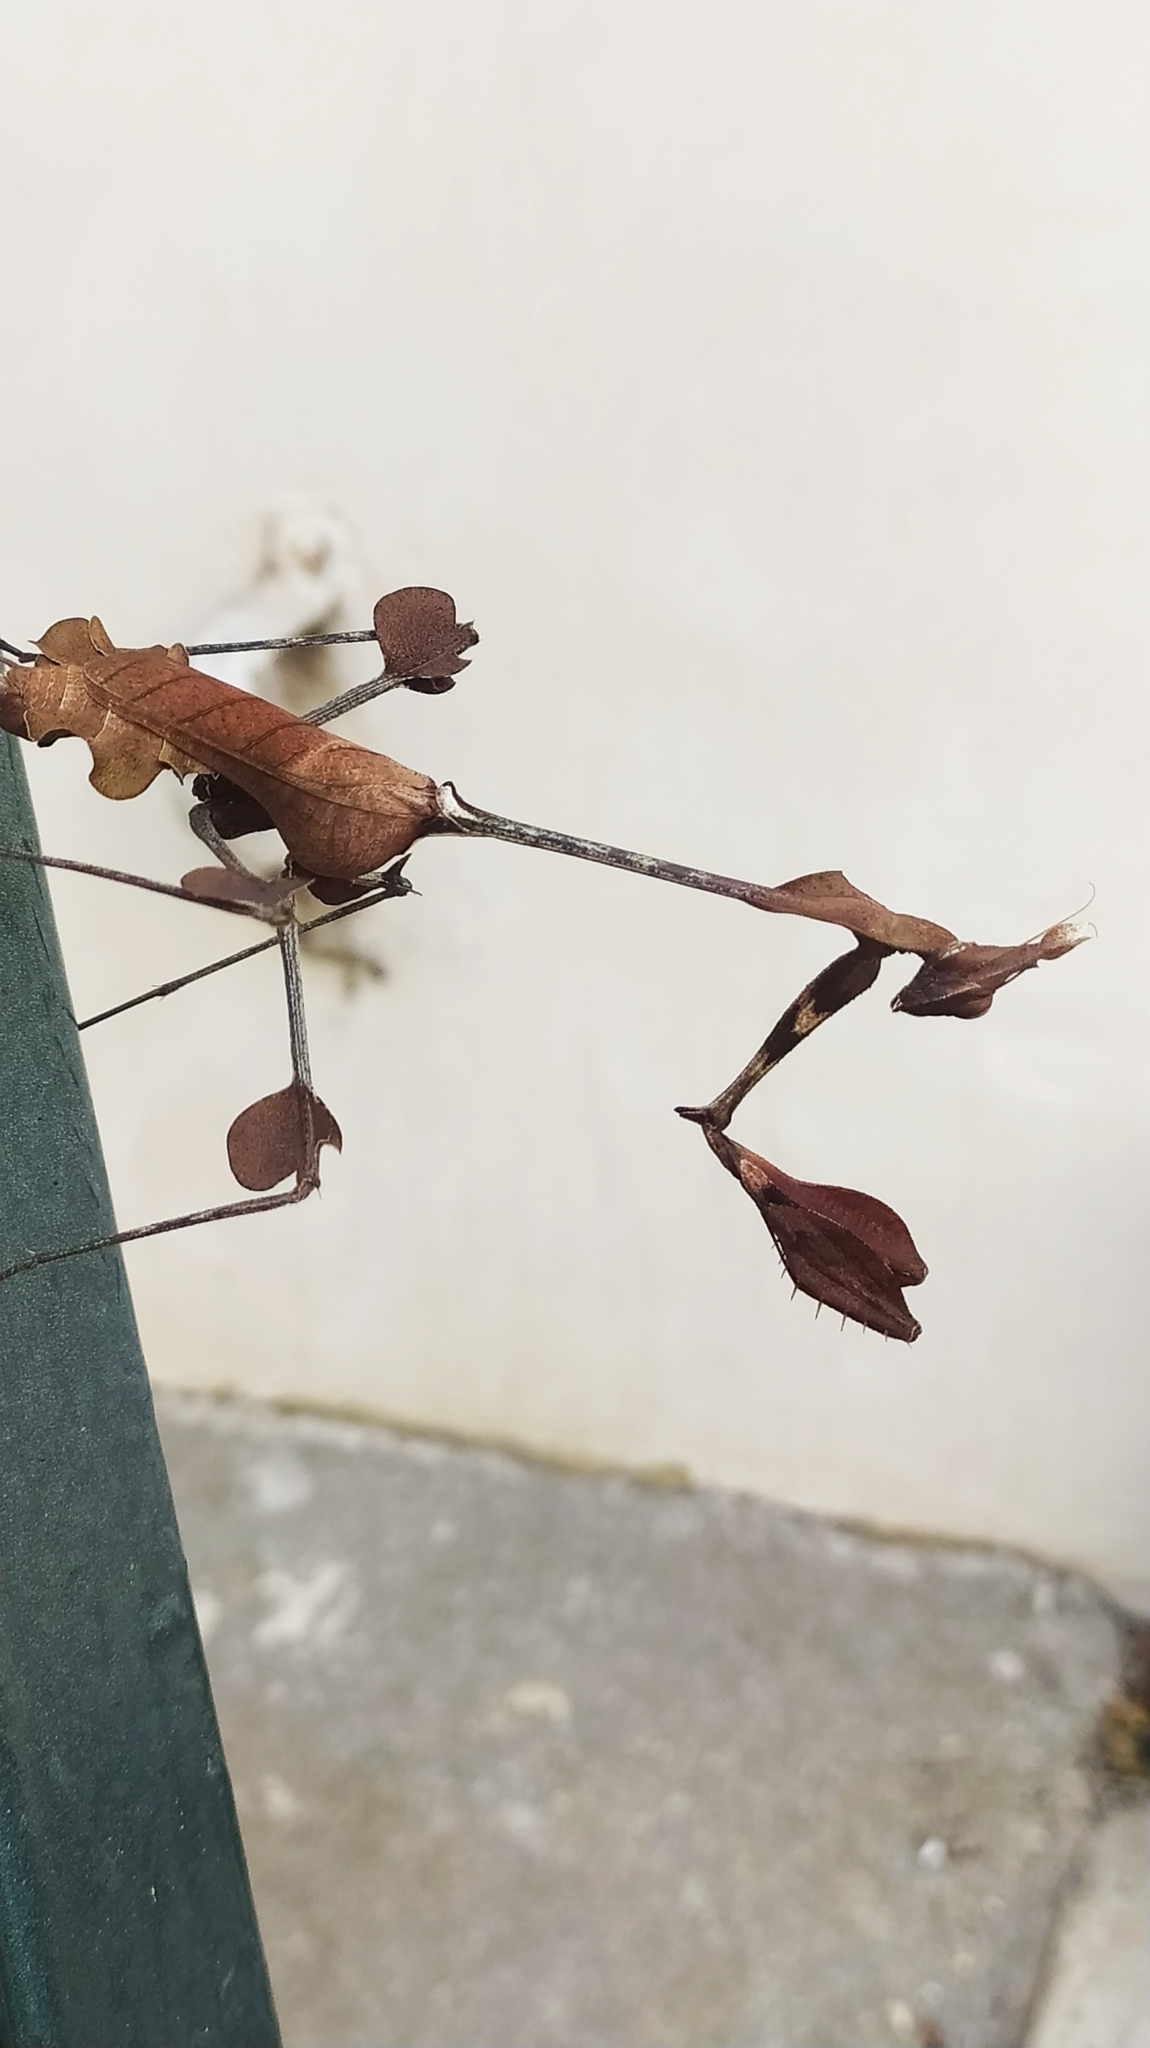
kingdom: Animalia
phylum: Arthropoda
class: Insecta
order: Mantodea
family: Empusidae
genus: Gongylus
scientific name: Gongylus gongylodes
